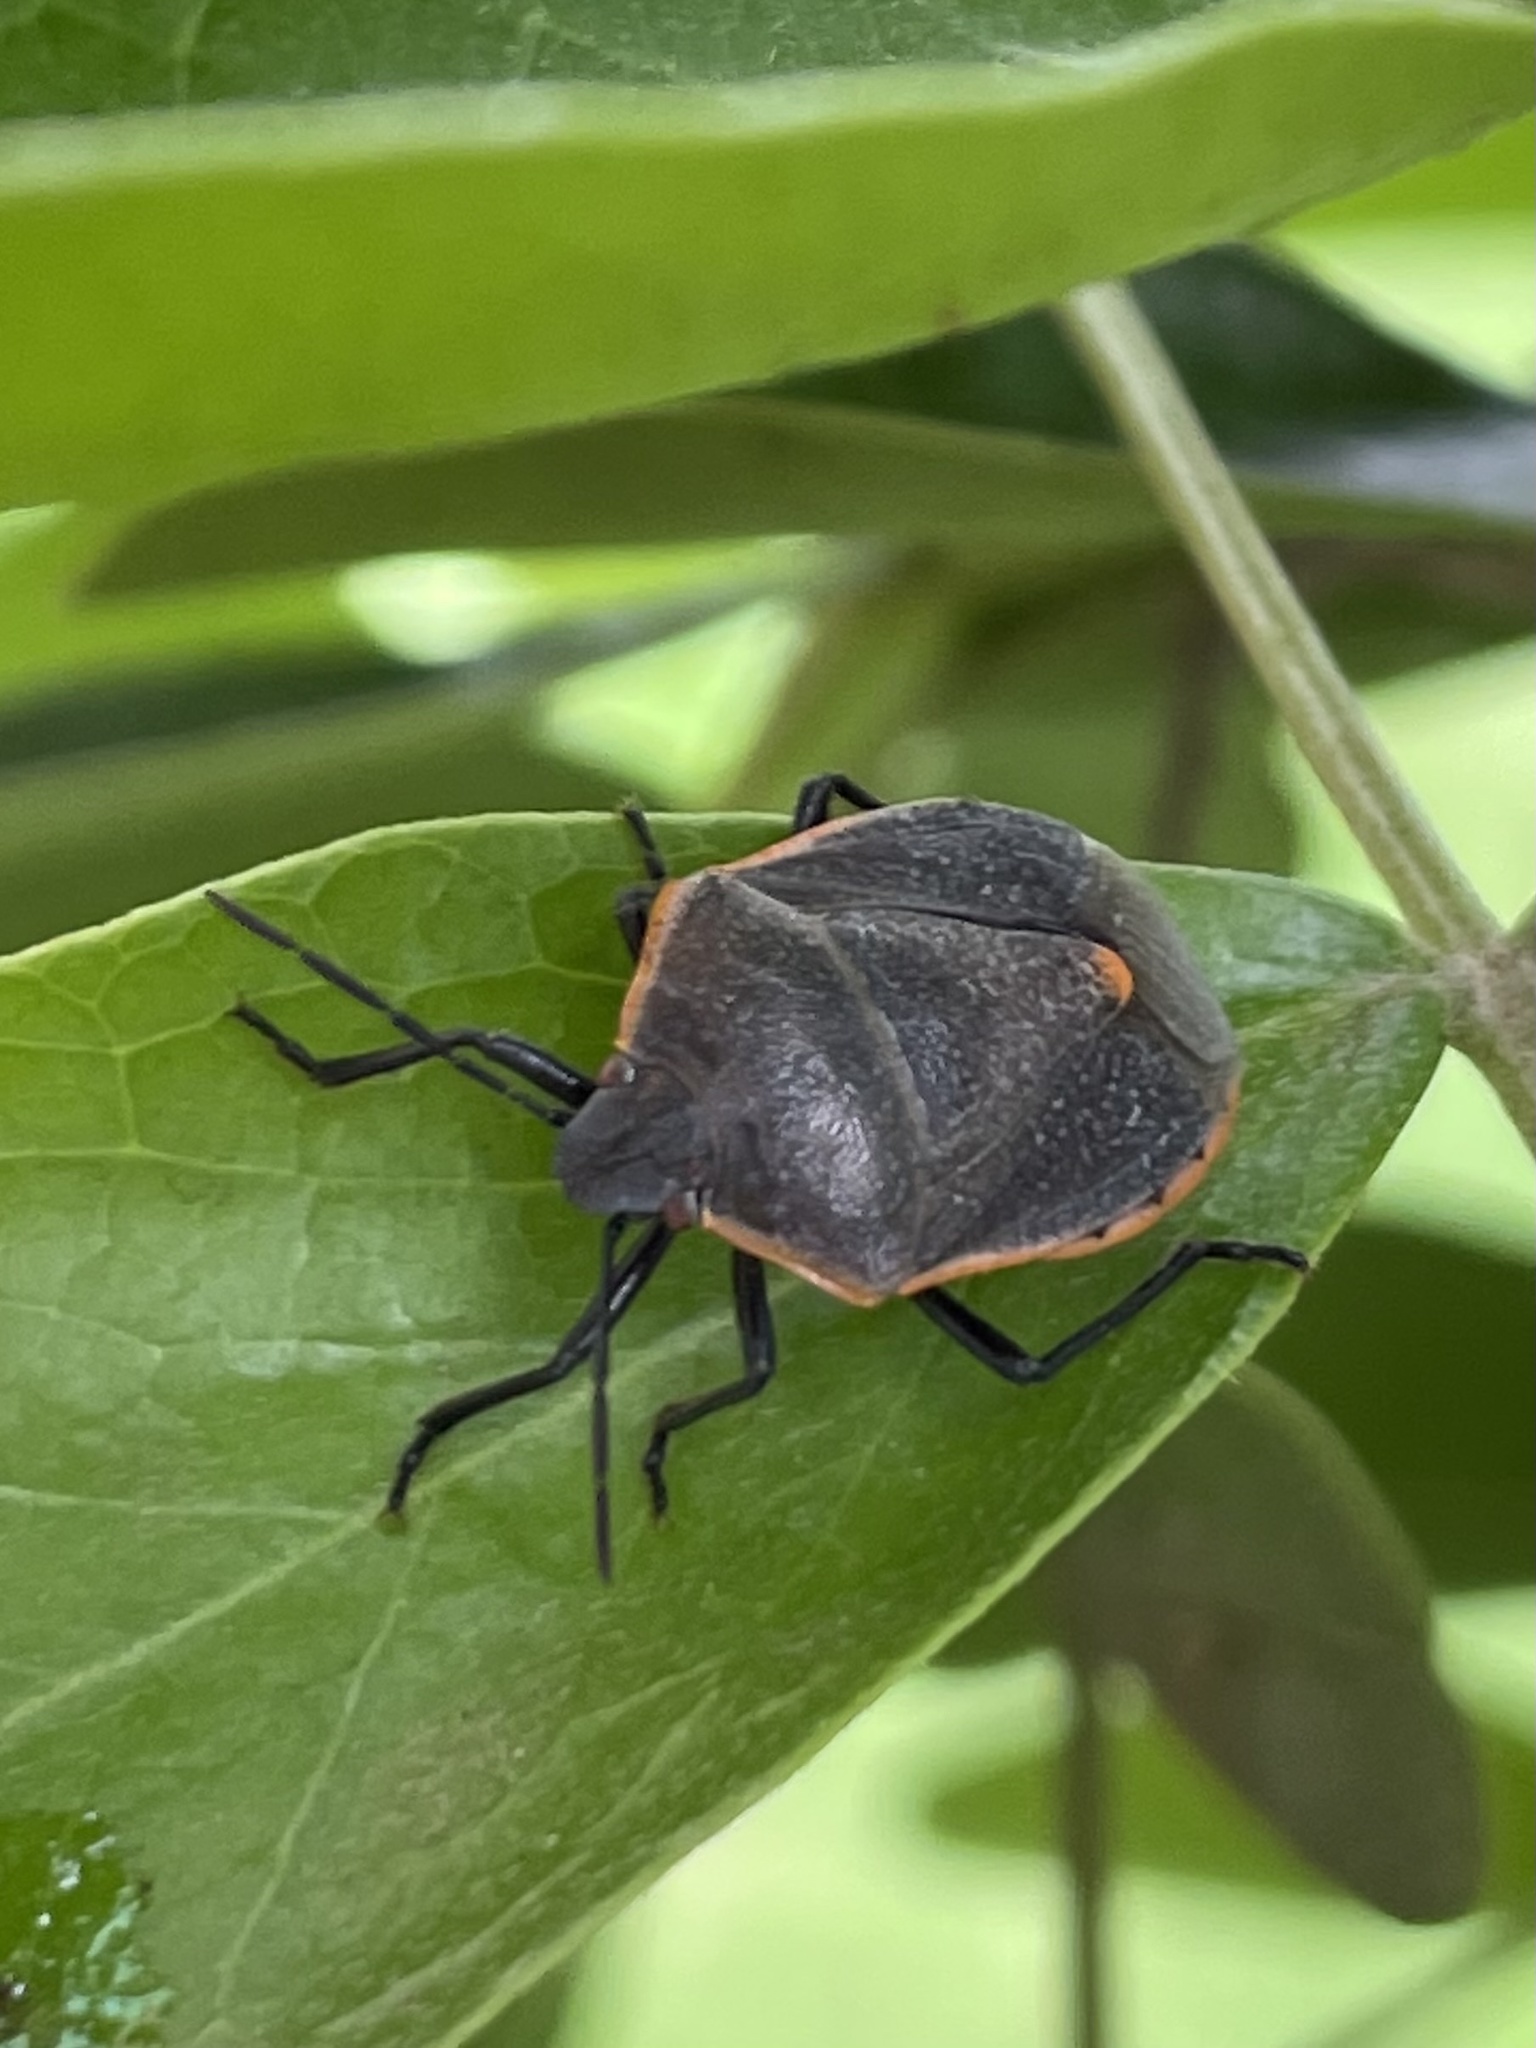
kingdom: Animalia
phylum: Arthropoda
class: Insecta
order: Hemiptera
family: Pentatomidae
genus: Chlorochroa
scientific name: Chlorochroa ligata
